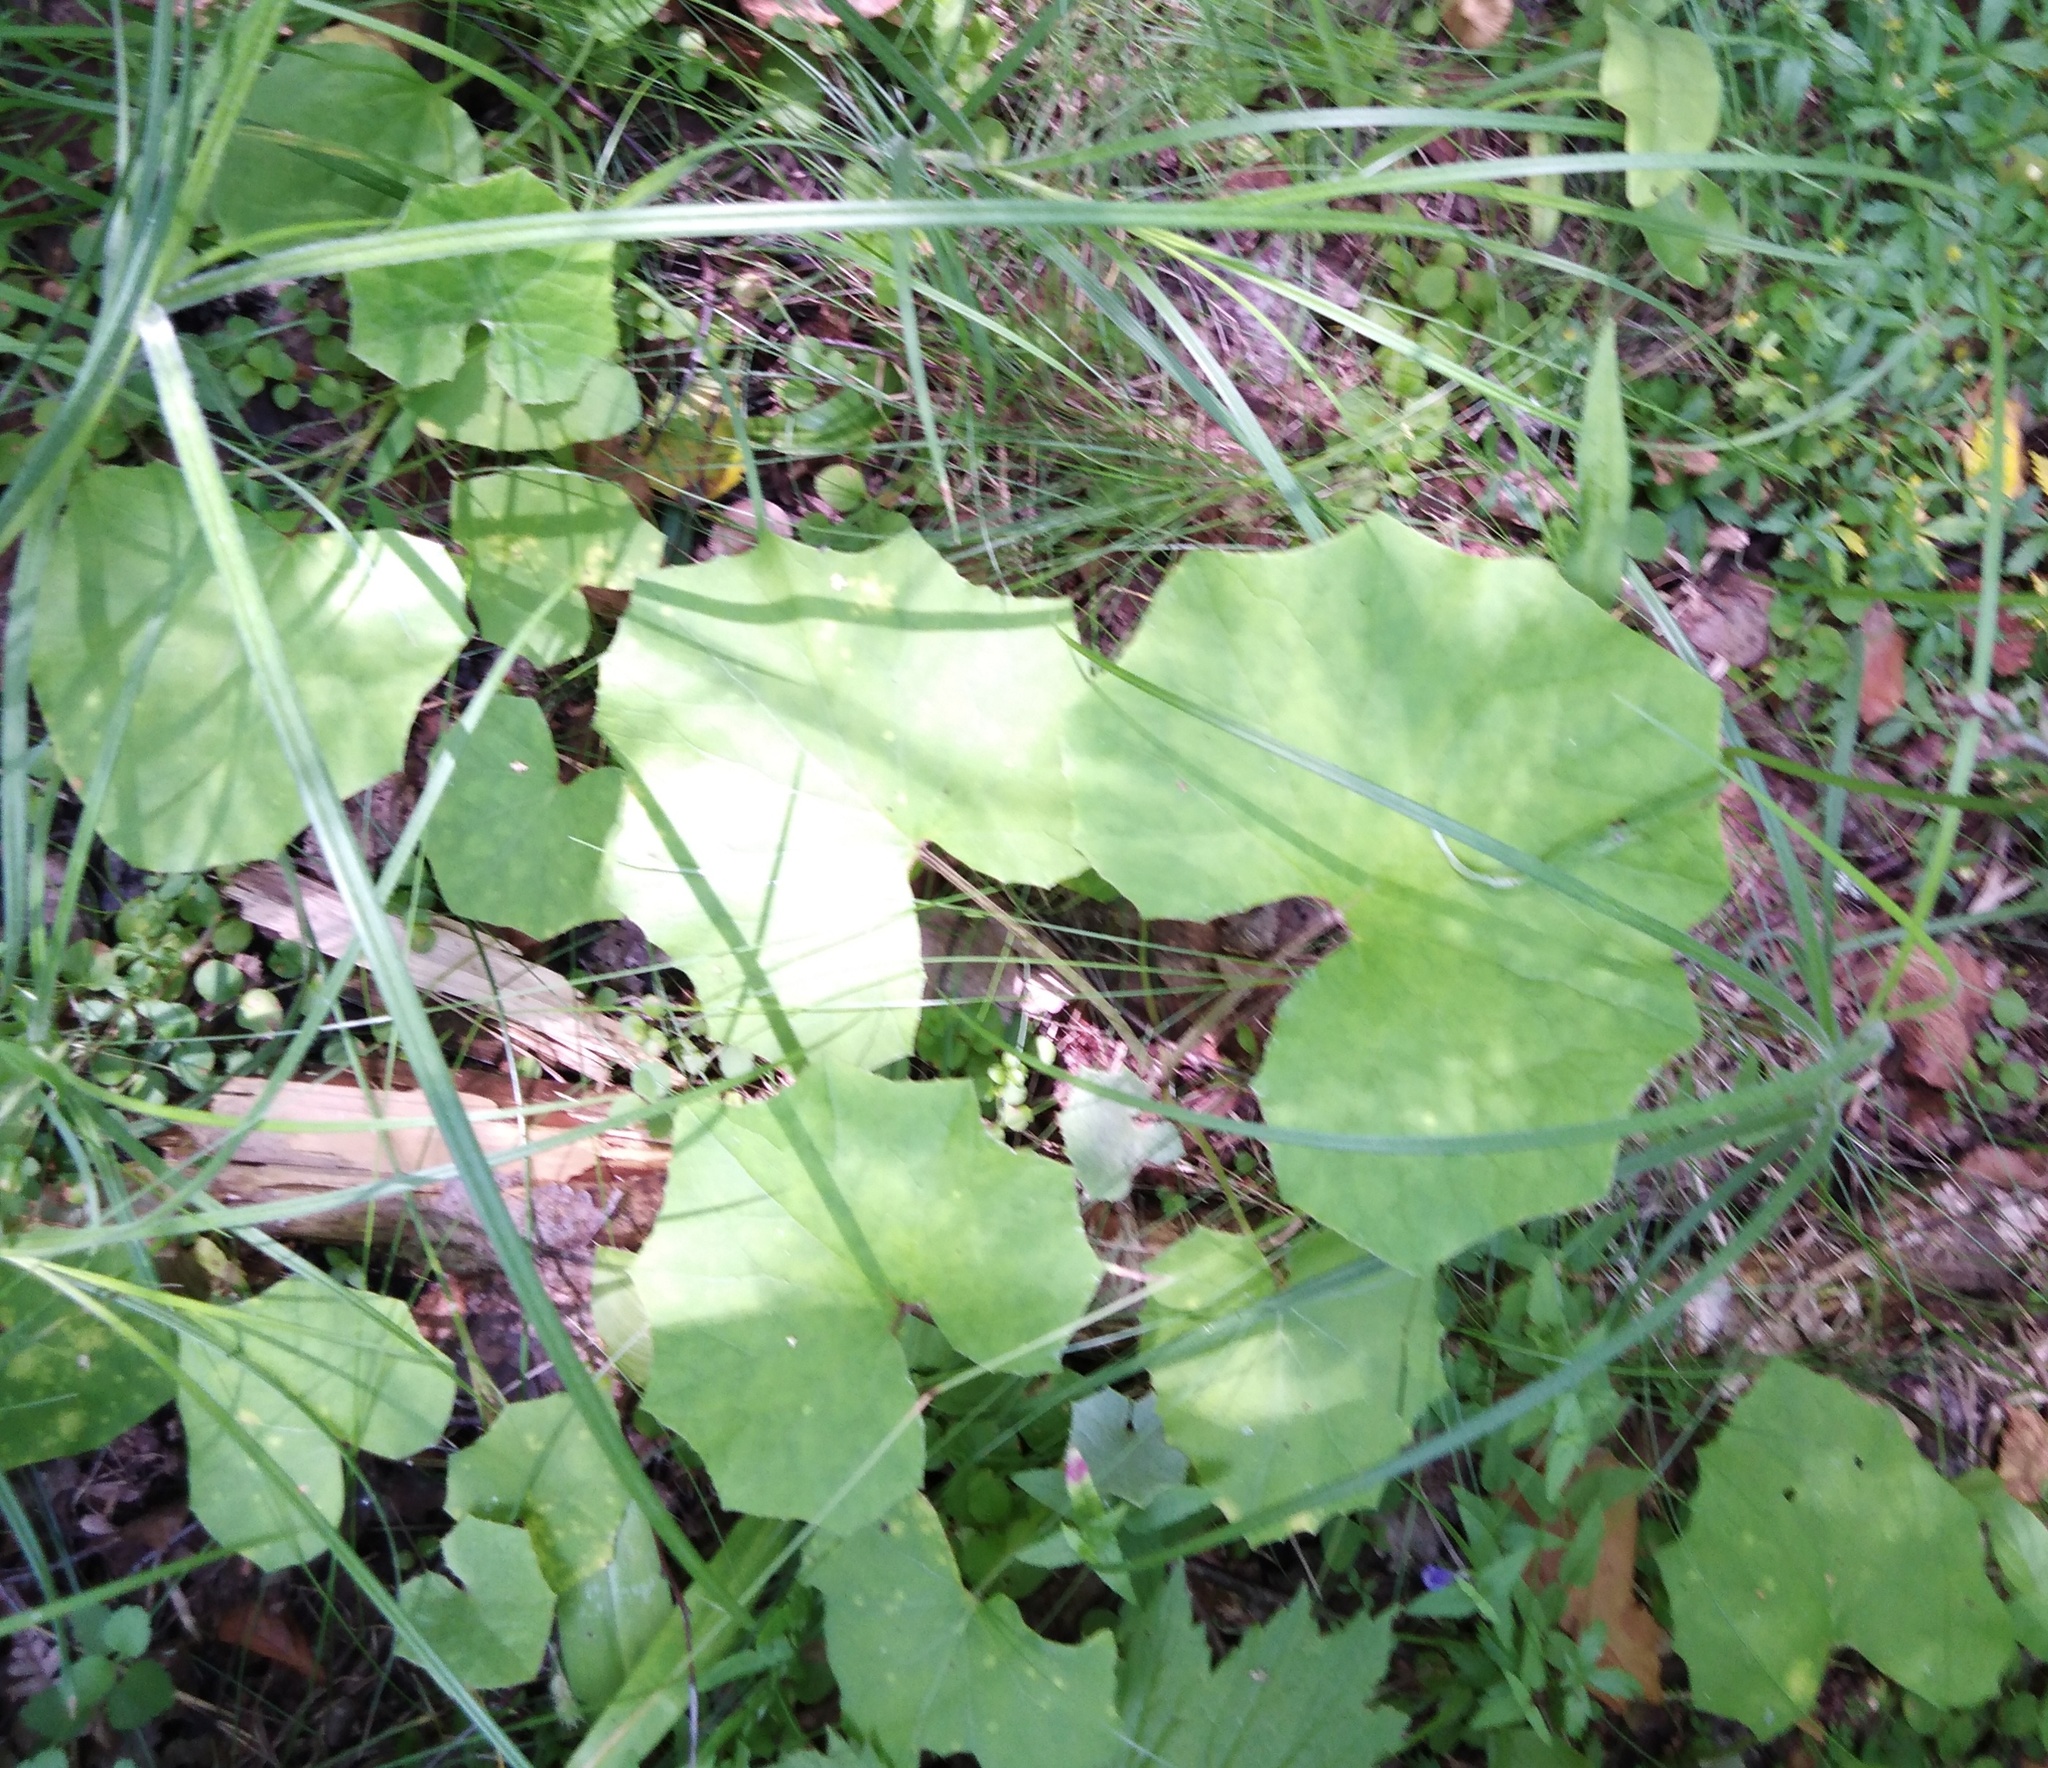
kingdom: Plantae
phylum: Tracheophyta
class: Magnoliopsida
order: Asterales
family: Asteraceae
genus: Tussilago
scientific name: Tussilago farfara
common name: Coltsfoot
